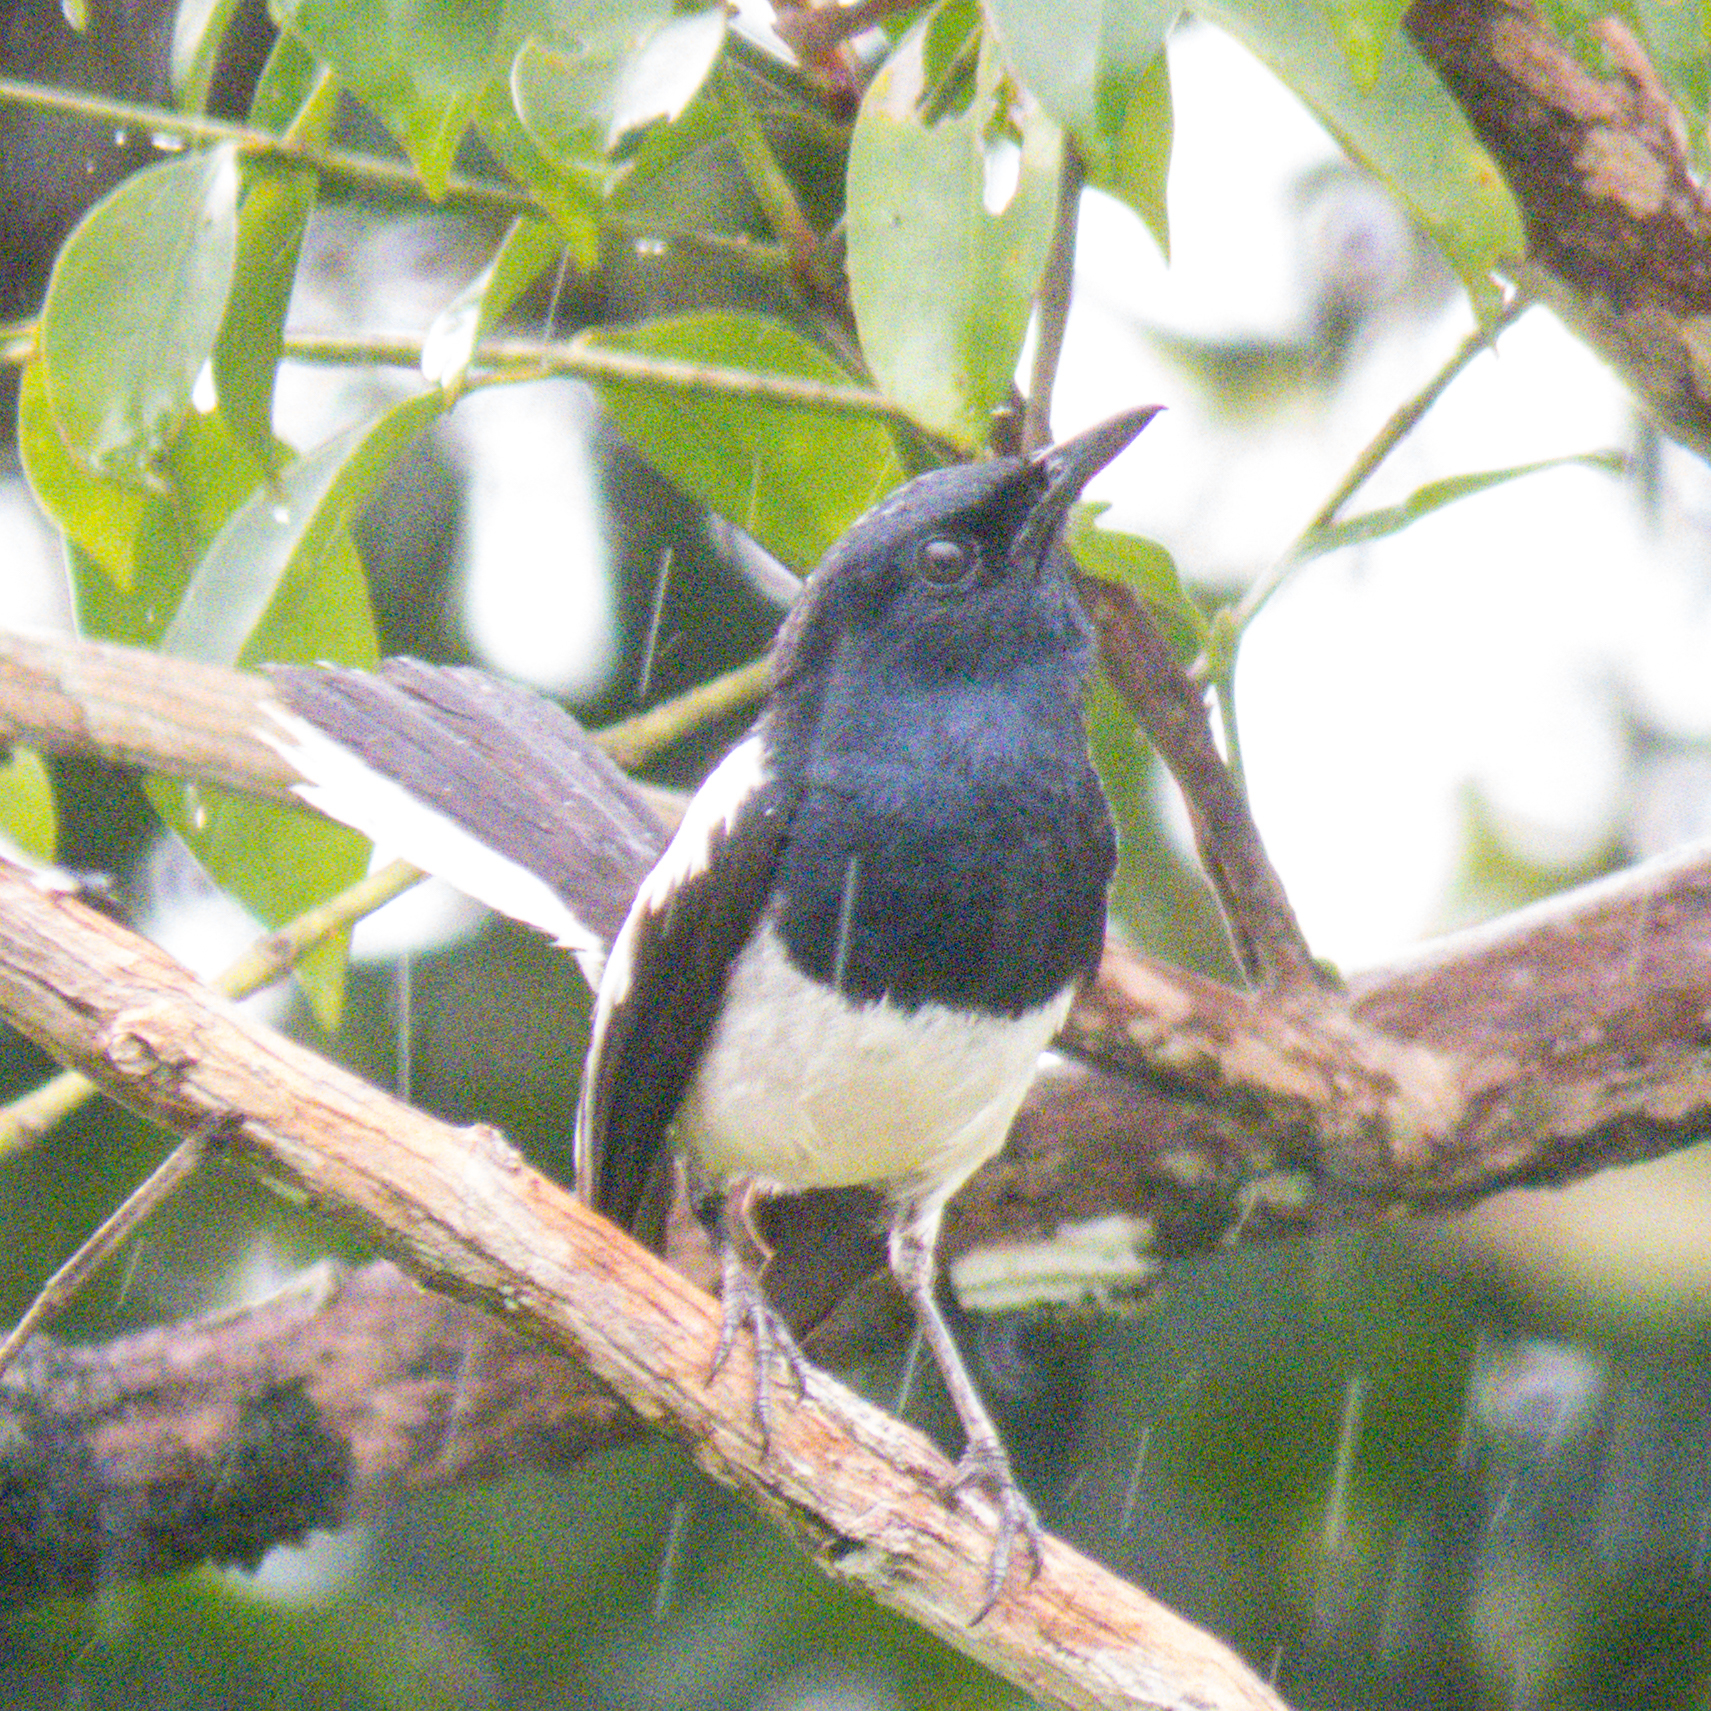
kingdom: Animalia
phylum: Chordata
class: Aves
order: Passeriformes
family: Muscicapidae
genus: Copsychus
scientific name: Copsychus saularis
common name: Oriental magpie-robin
